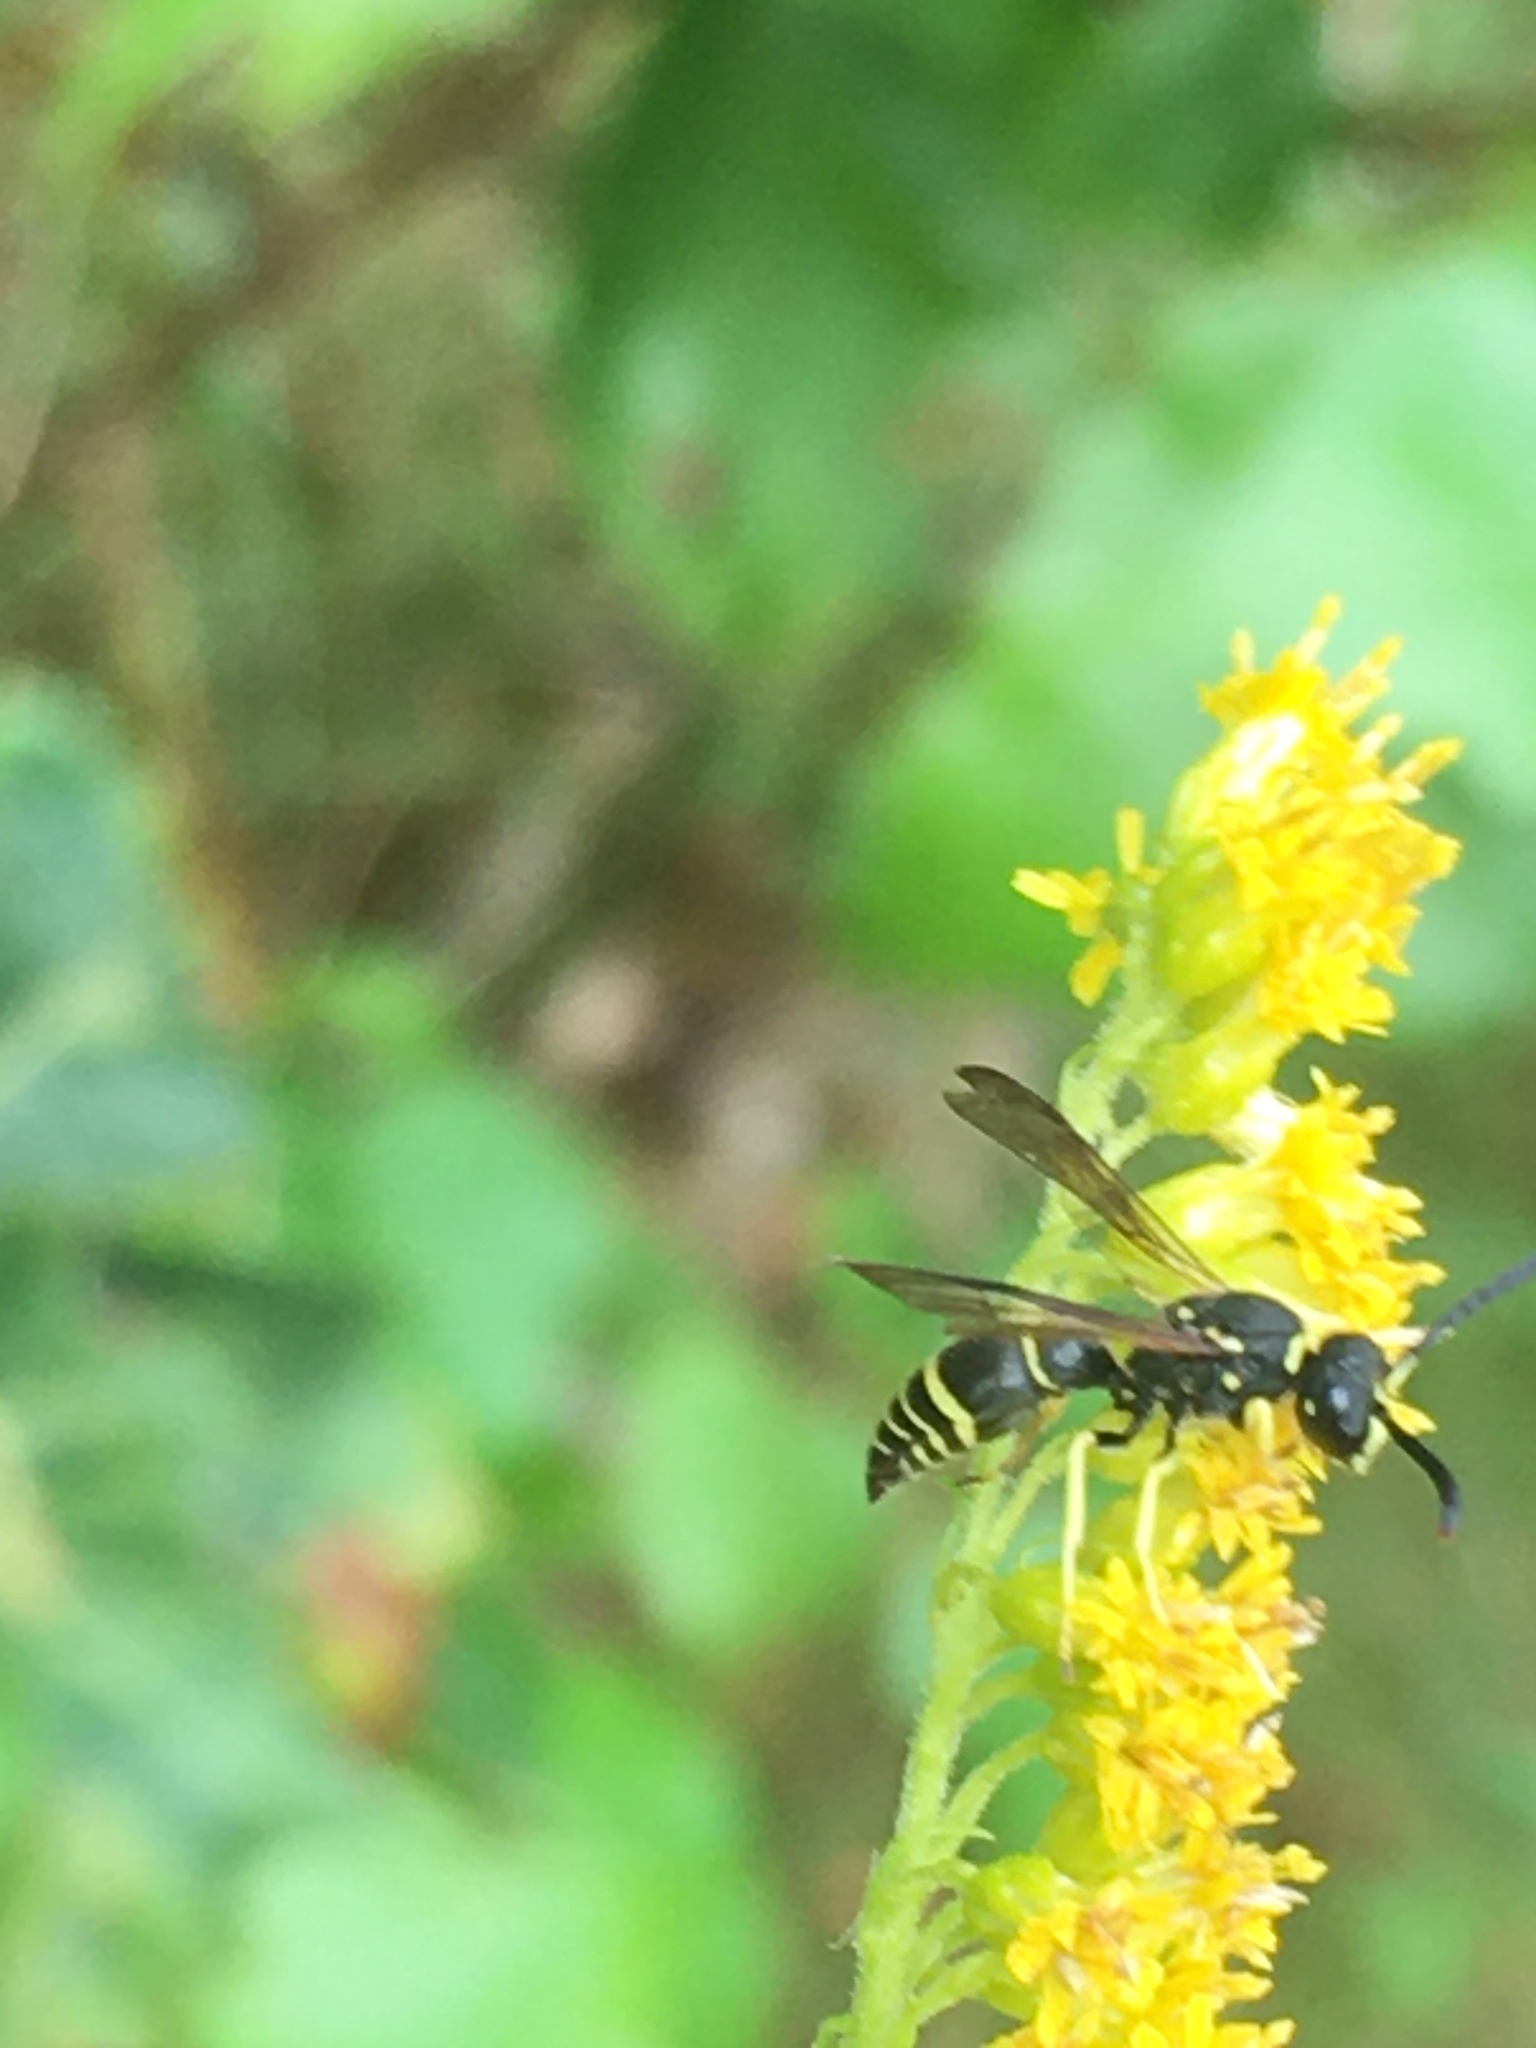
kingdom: Animalia
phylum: Arthropoda
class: Insecta
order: Hymenoptera
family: Vespidae
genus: Ancistrocerus
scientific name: Ancistrocerus
